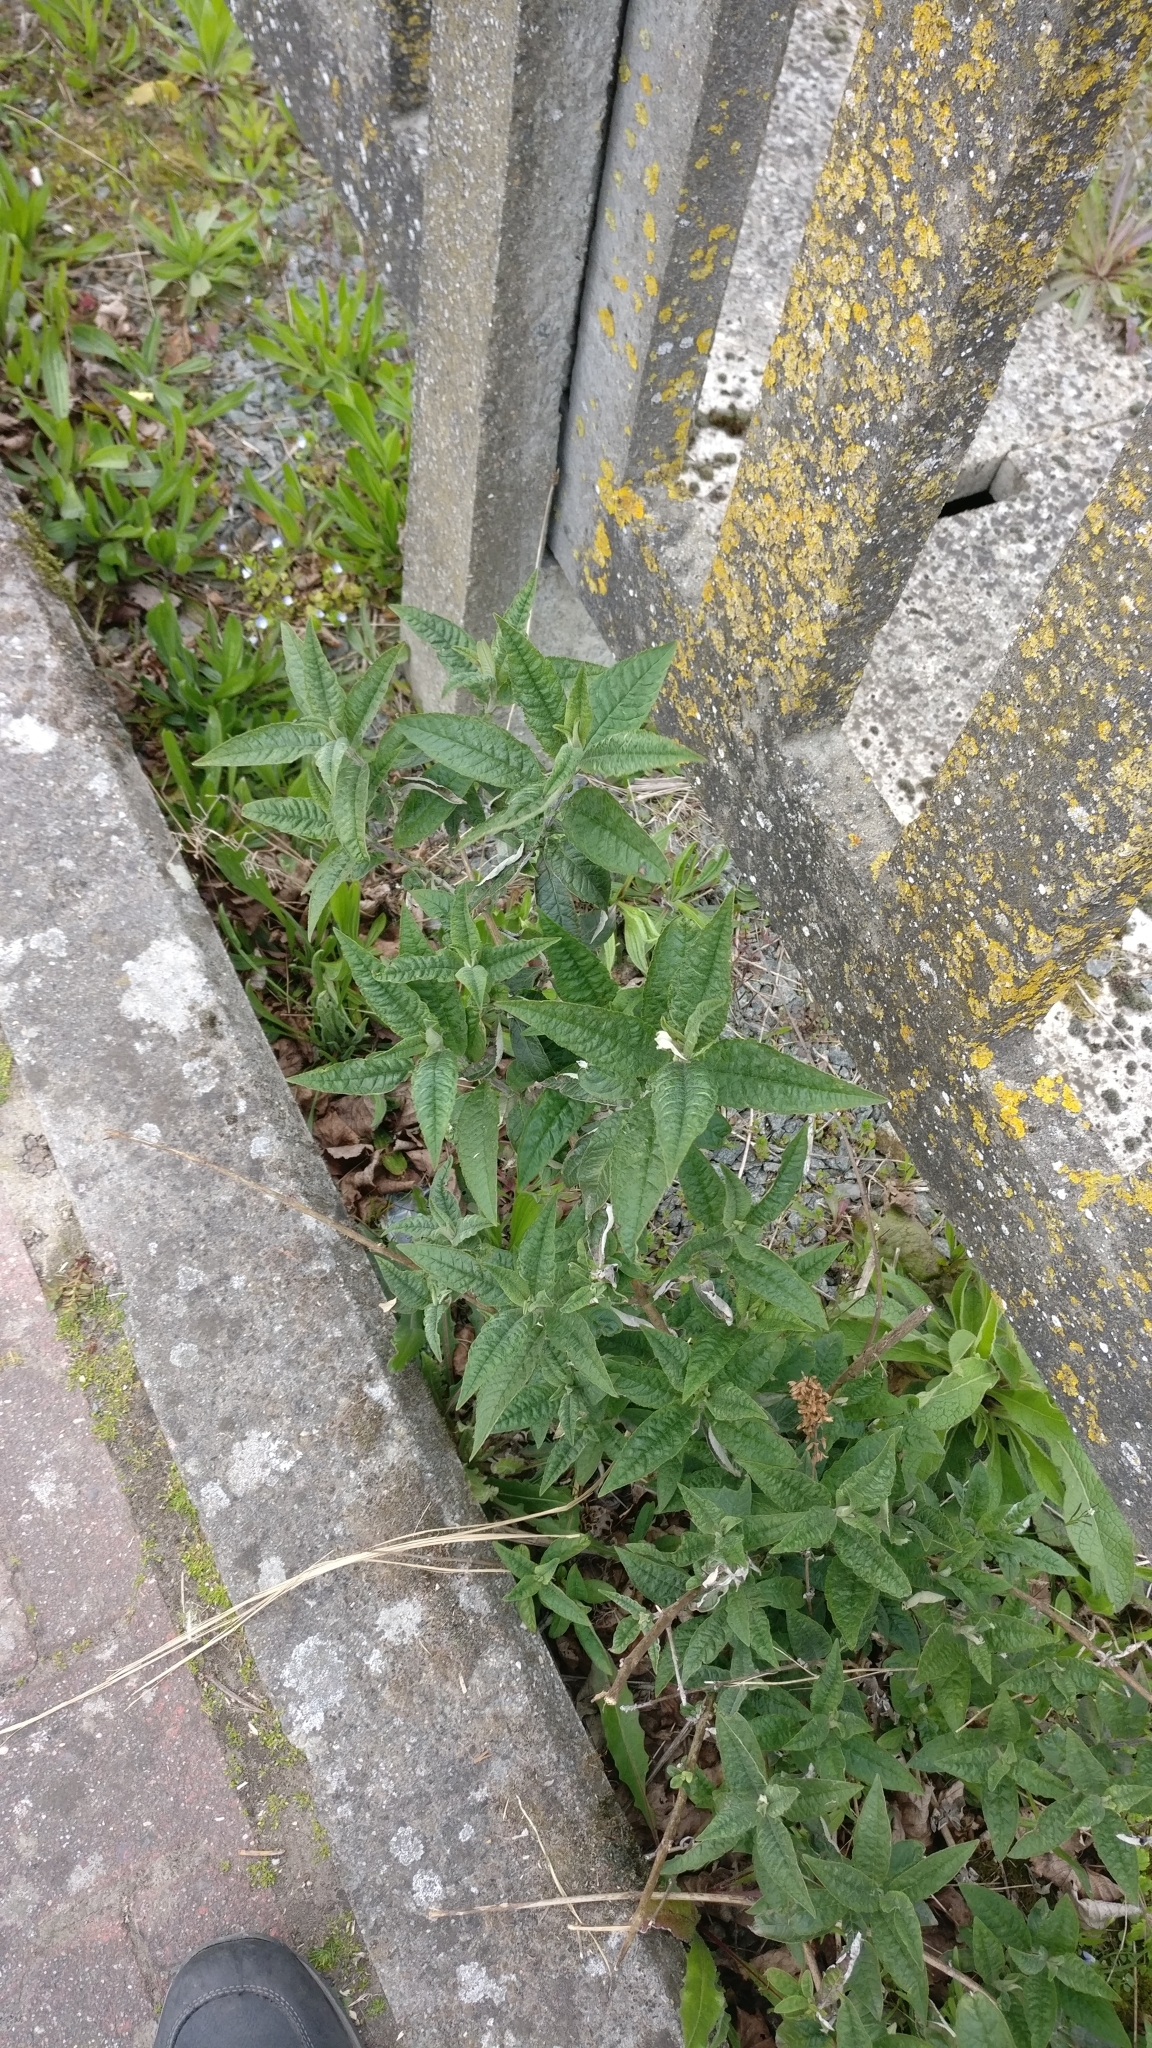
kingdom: Plantae
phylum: Tracheophyta
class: Magnoliopsida
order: Lamiales
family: Scrophulariaceae
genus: Buddleja
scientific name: Buddleja davidii
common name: Butterfly-bush
